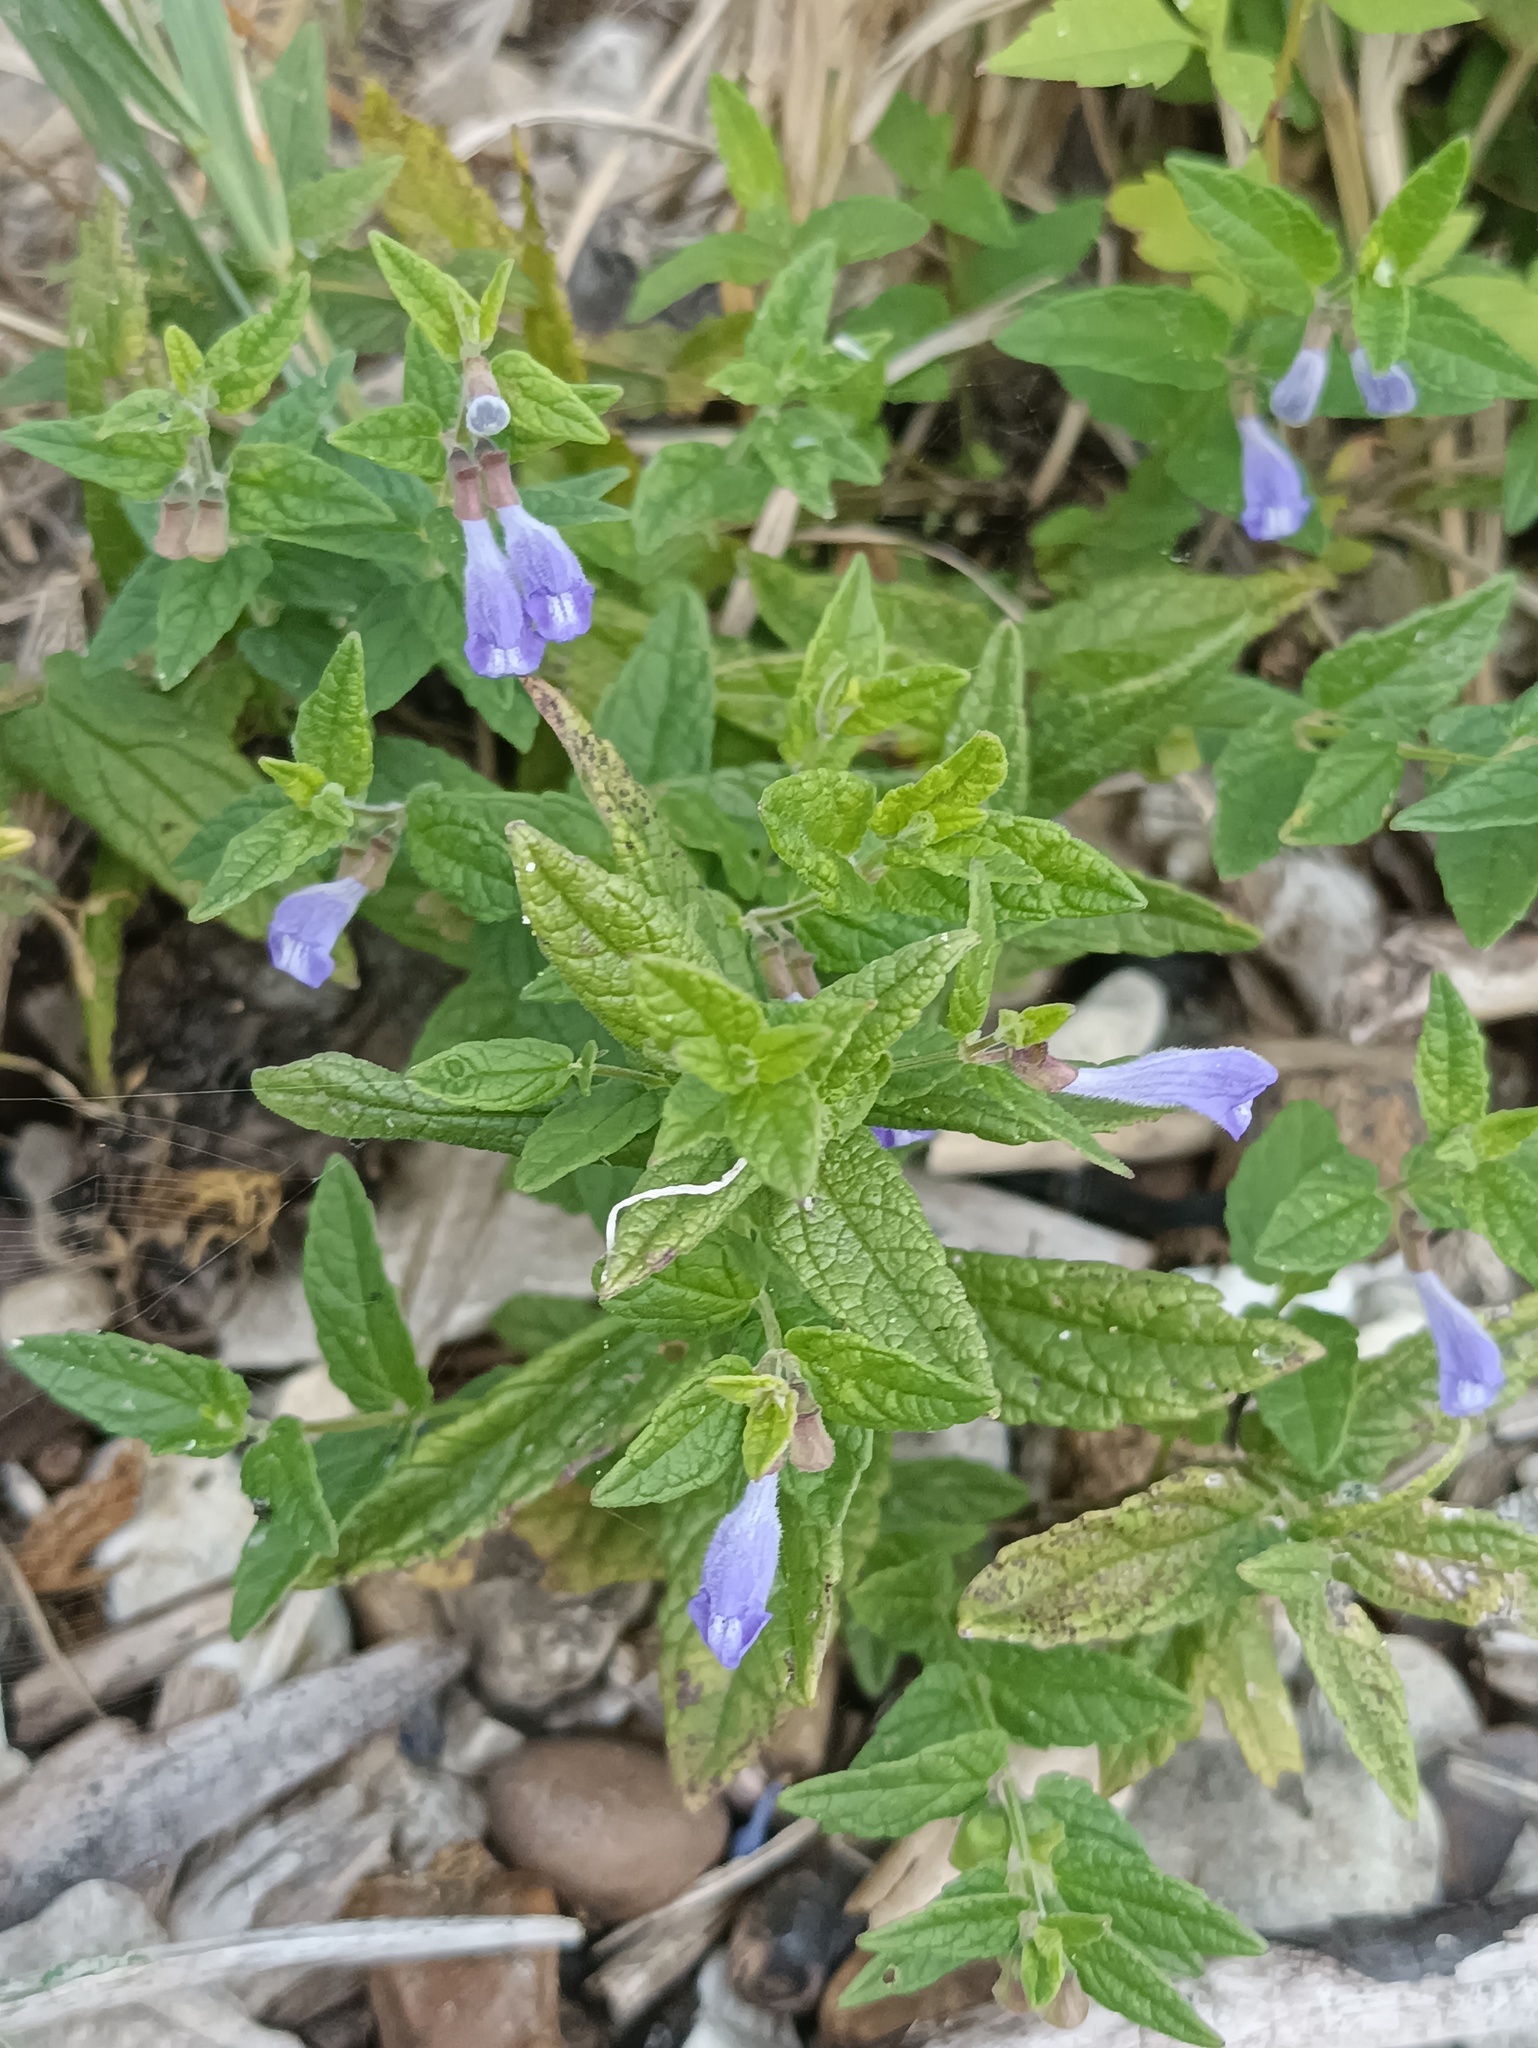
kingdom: Plantae
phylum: Tracheophyta
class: Magnoliopsida
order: Lamiales
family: Lamiaceae
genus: Scutellaria
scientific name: Scutellaria galericulata
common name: Skullcap
